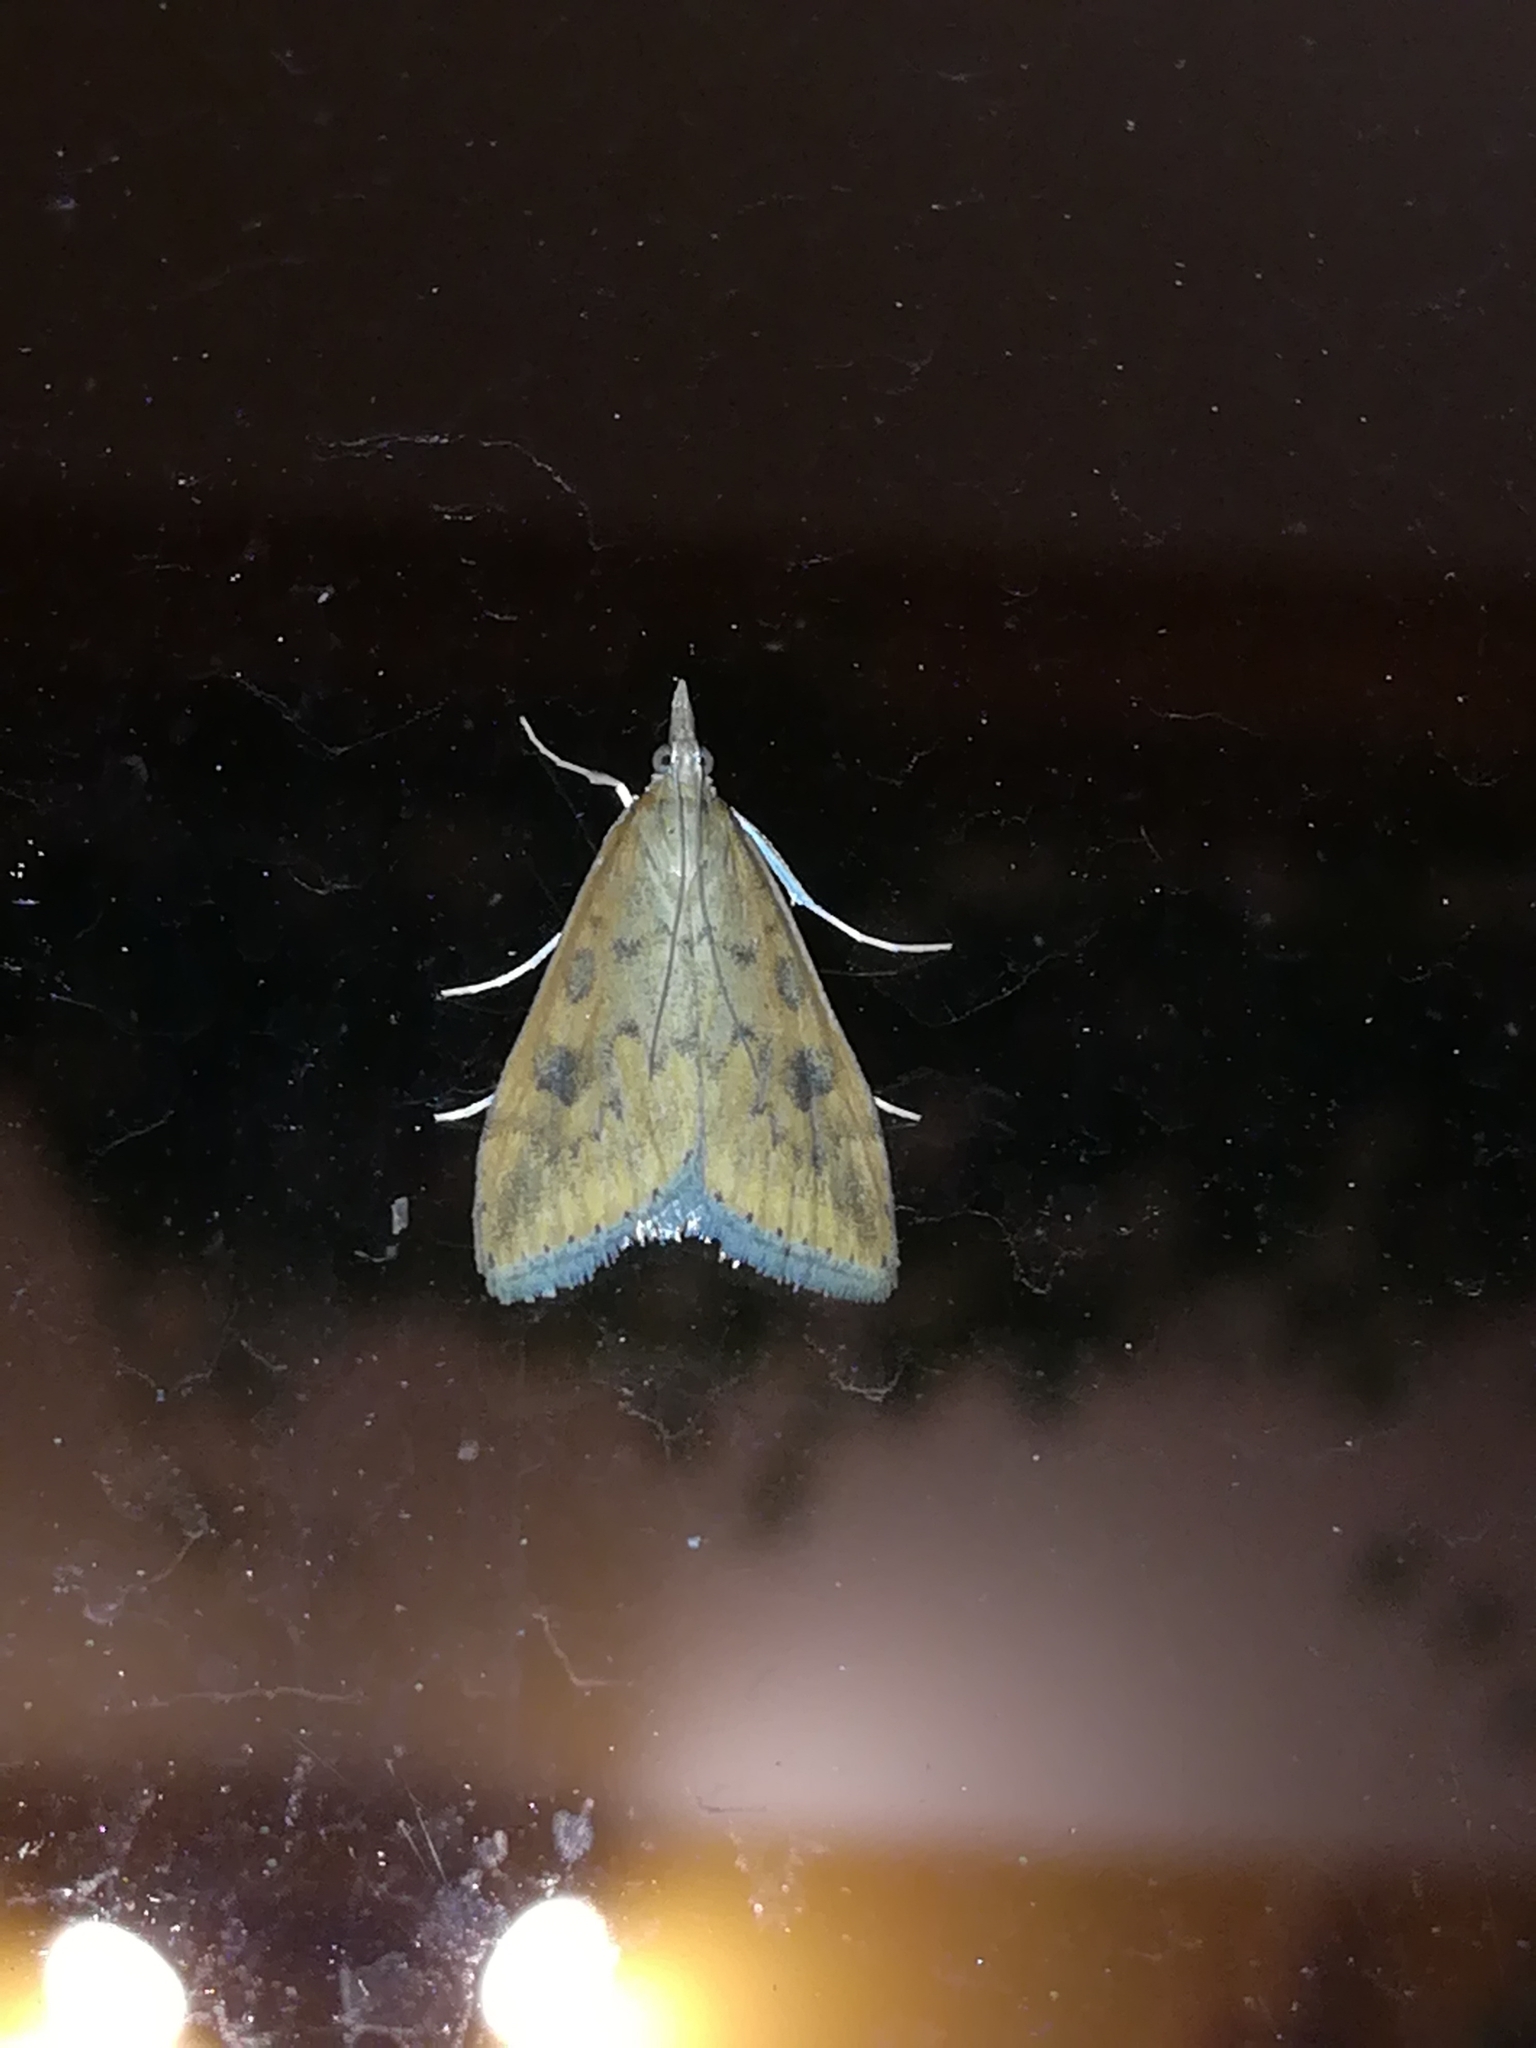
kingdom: Animalia
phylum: Arthropoda
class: Insecta
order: Lepidoptera
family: Crambidae
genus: Udea
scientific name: Udea ferrugalis
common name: Rusty dot
